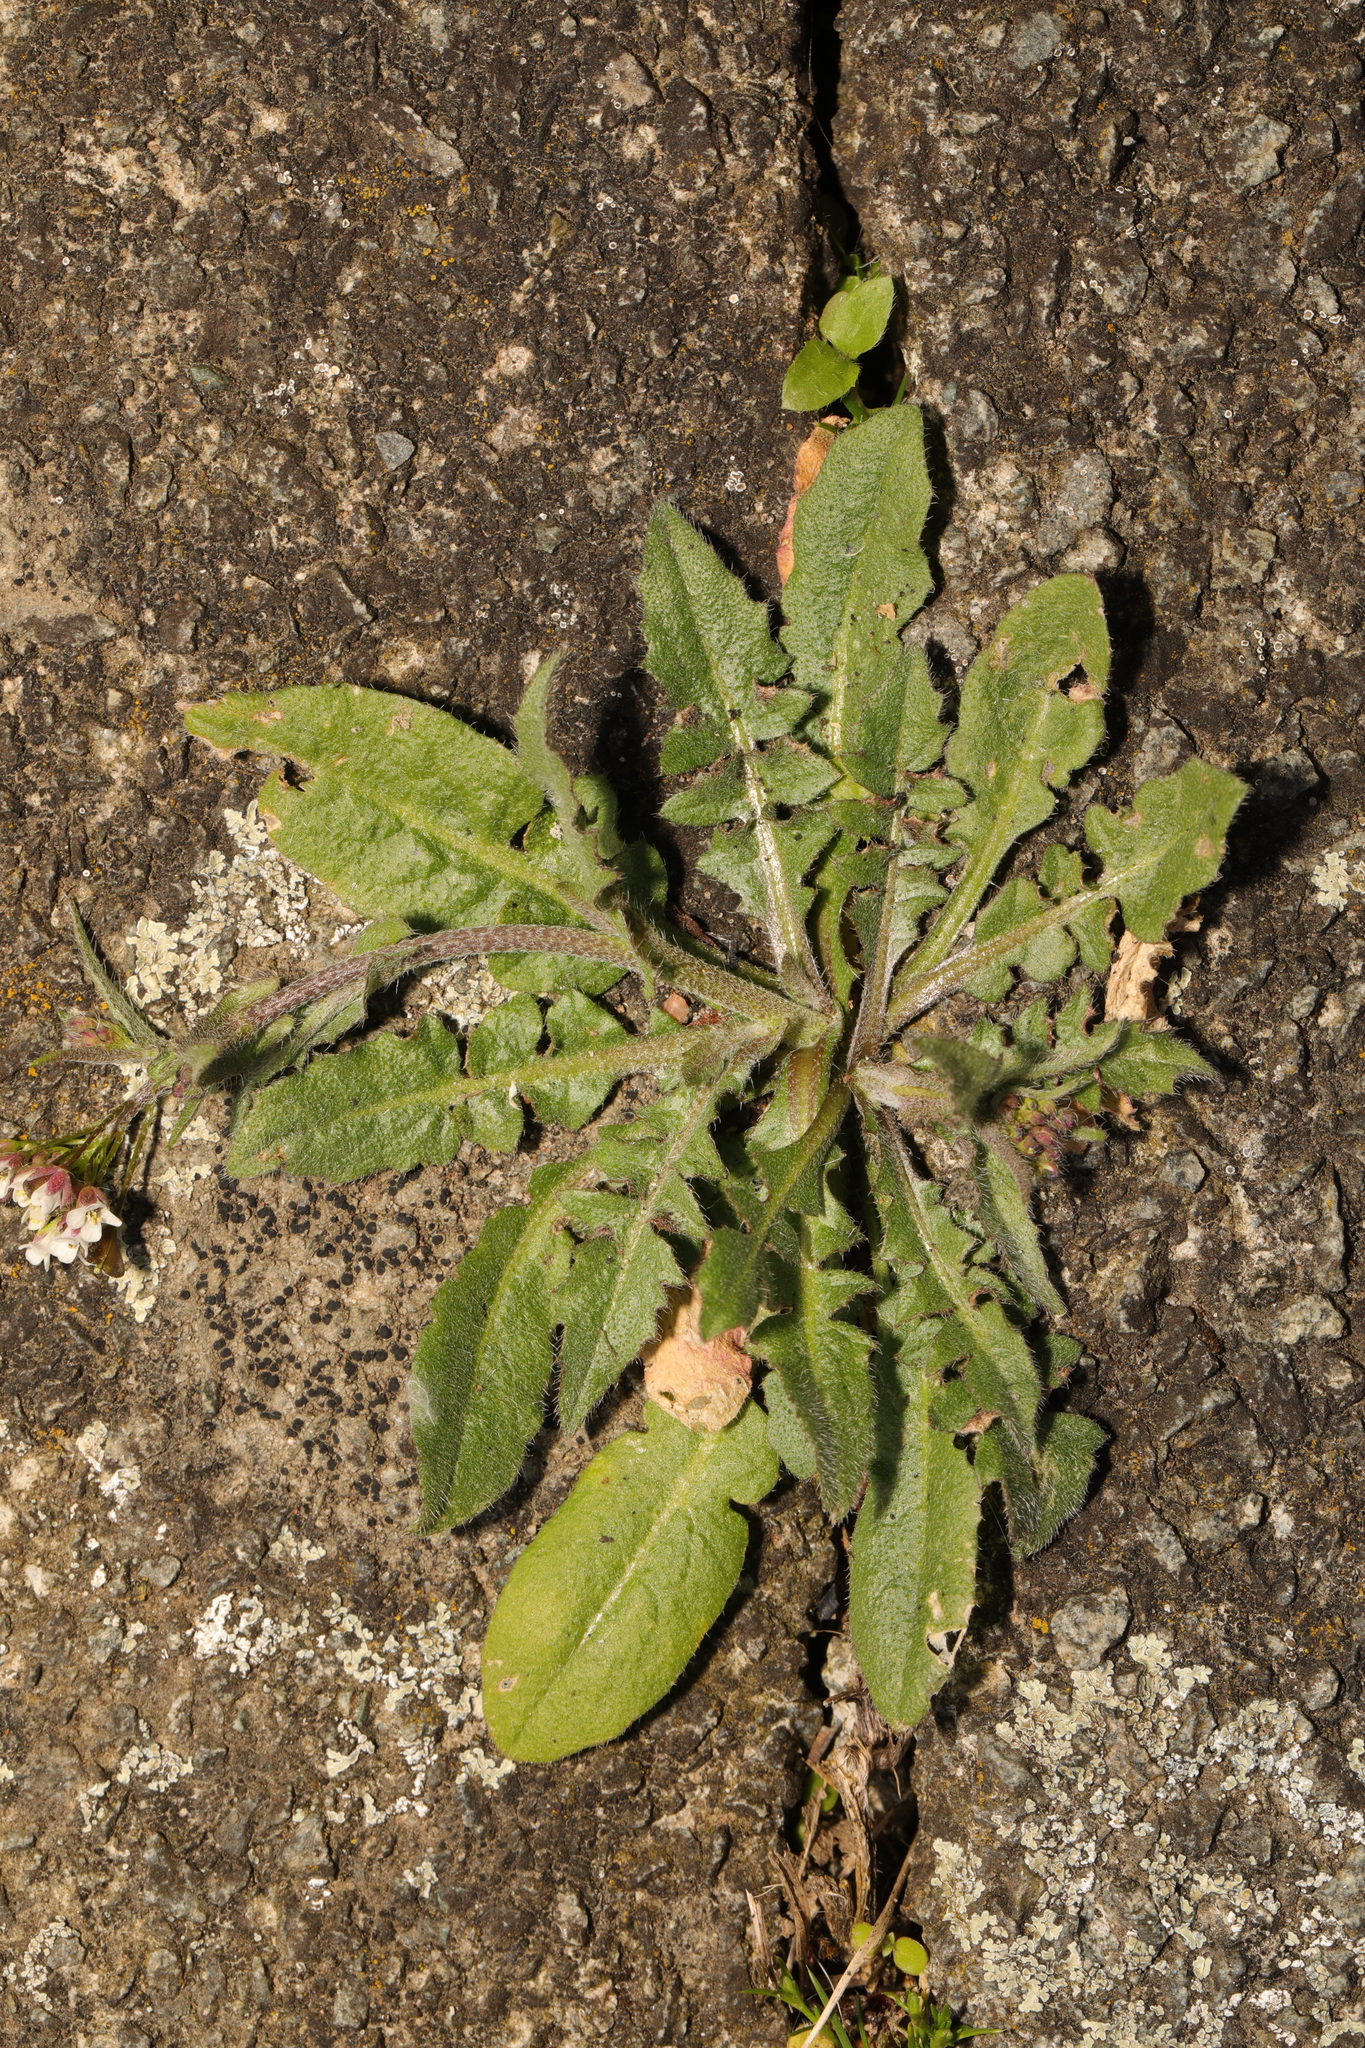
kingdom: Plantae
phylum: Tracheophyta
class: Magnoliopsida
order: Brassicales
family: Brassicaceae
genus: Capsella
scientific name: Capsella bursa-pastoris
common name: Shepherd's purse
